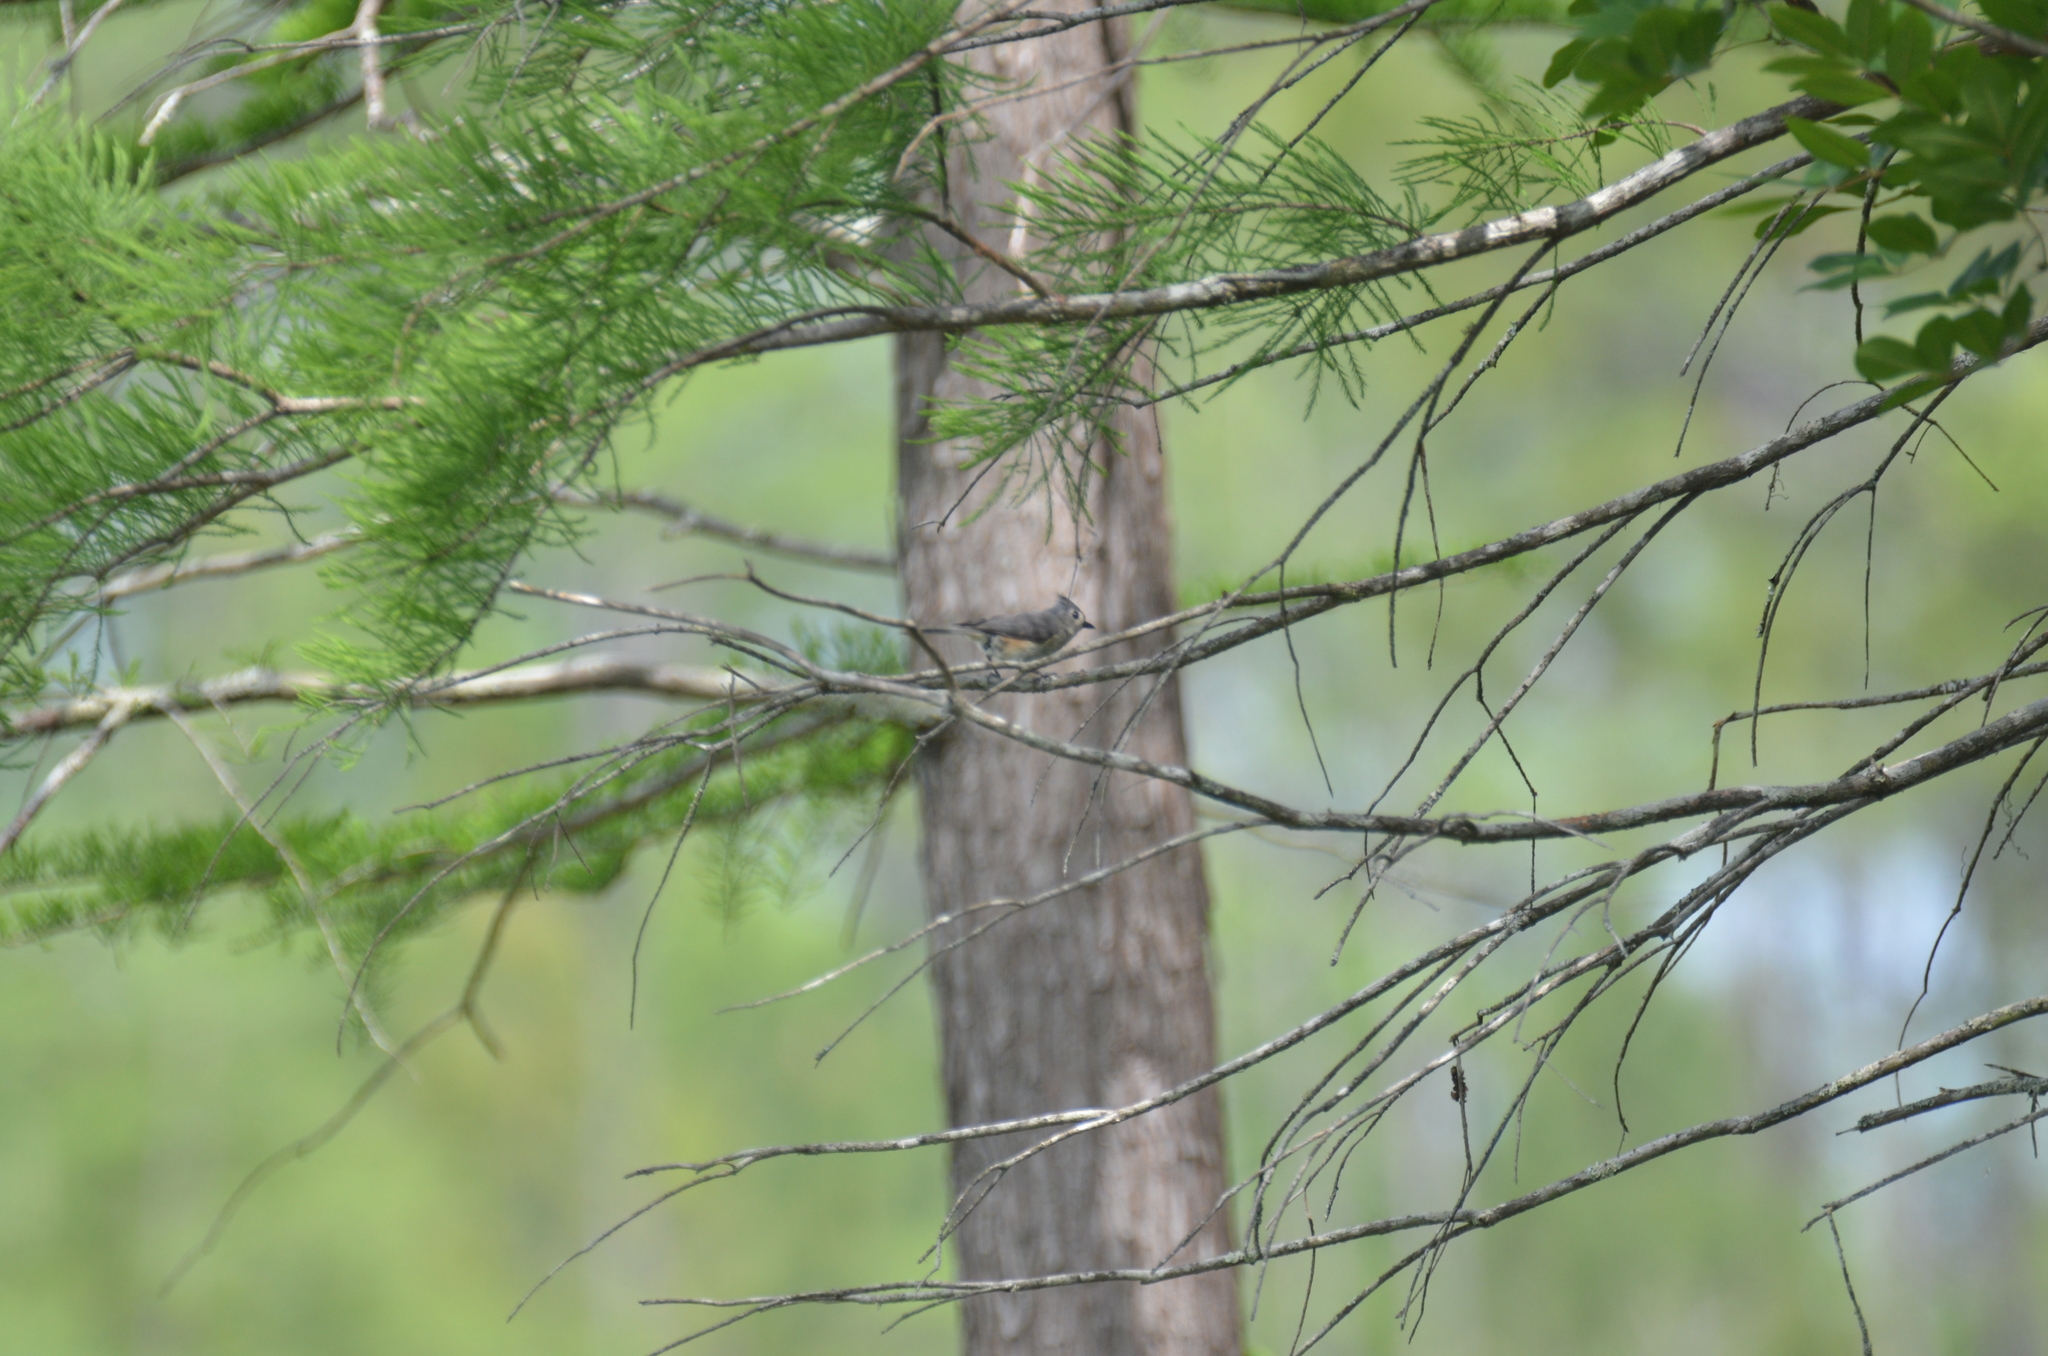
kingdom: Animalia
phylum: Chordata
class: Aves
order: Passeriformes
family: Paridae
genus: Baeolophus
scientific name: Baeolophus bicolor
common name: Tufted titmouse
